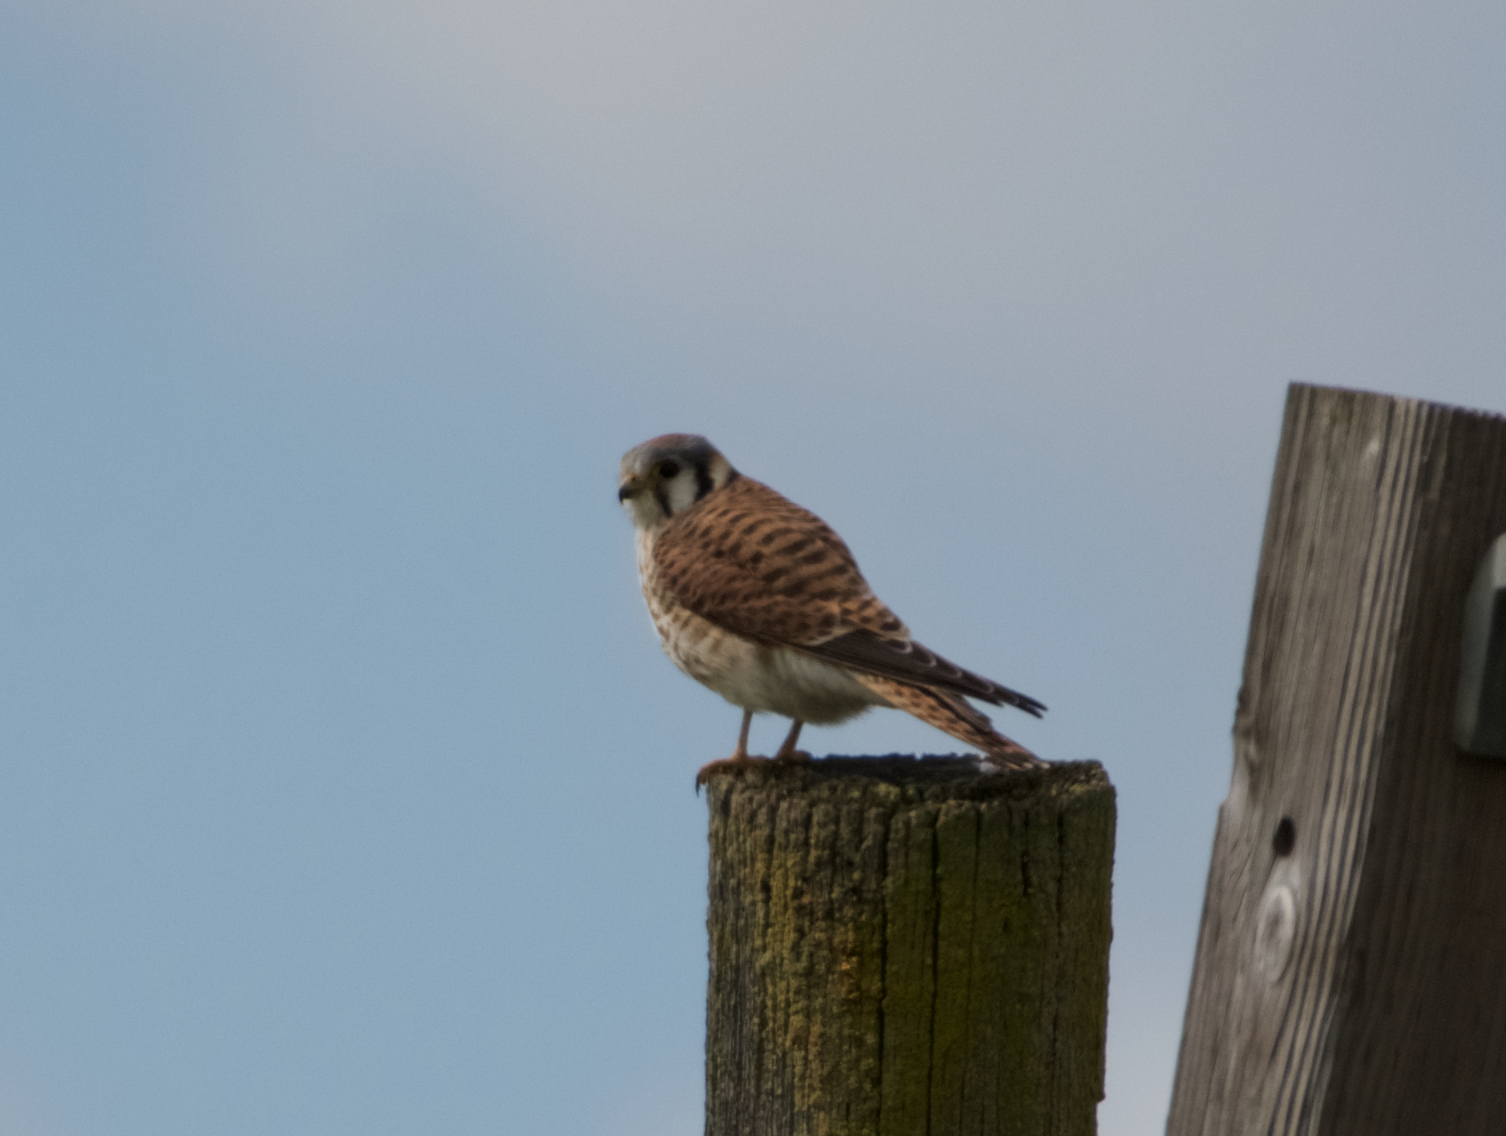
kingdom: Animalia
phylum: Chordata
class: Aves
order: Falconiformes
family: Falconidae
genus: Falco
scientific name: Falco sparverius
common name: American kestrel
